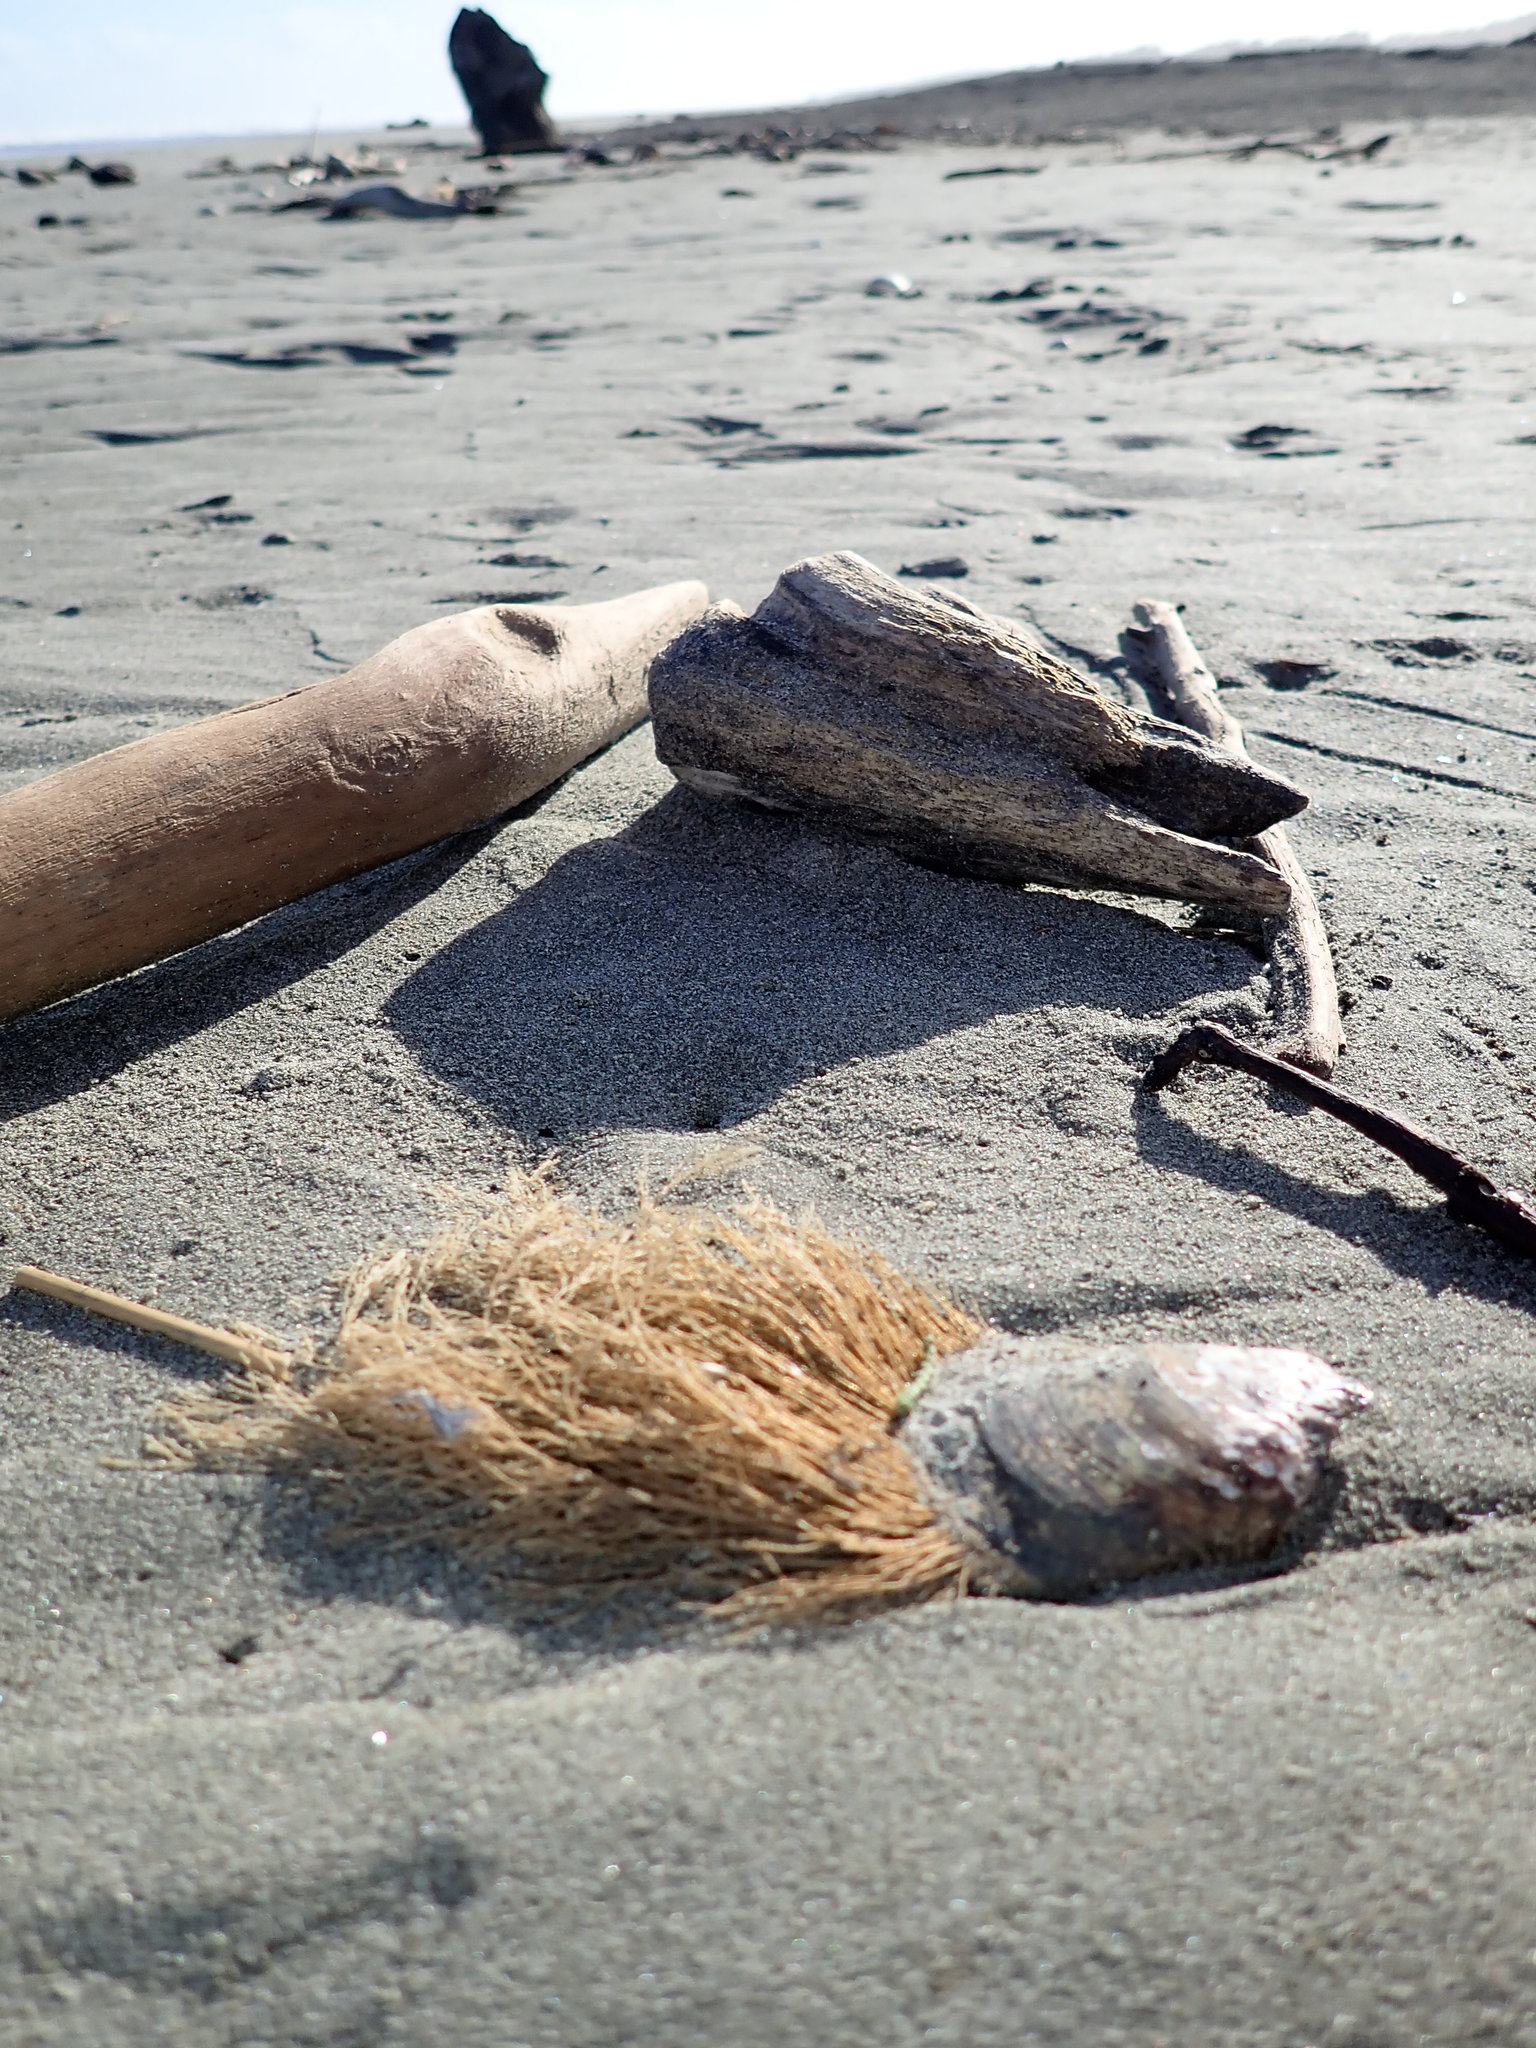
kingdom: Animalia
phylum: Cnidaria
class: Hydrozoa
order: Leptothecata
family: Sertulariidae
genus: Amphisbetia
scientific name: Amphisbetia bispinosa
